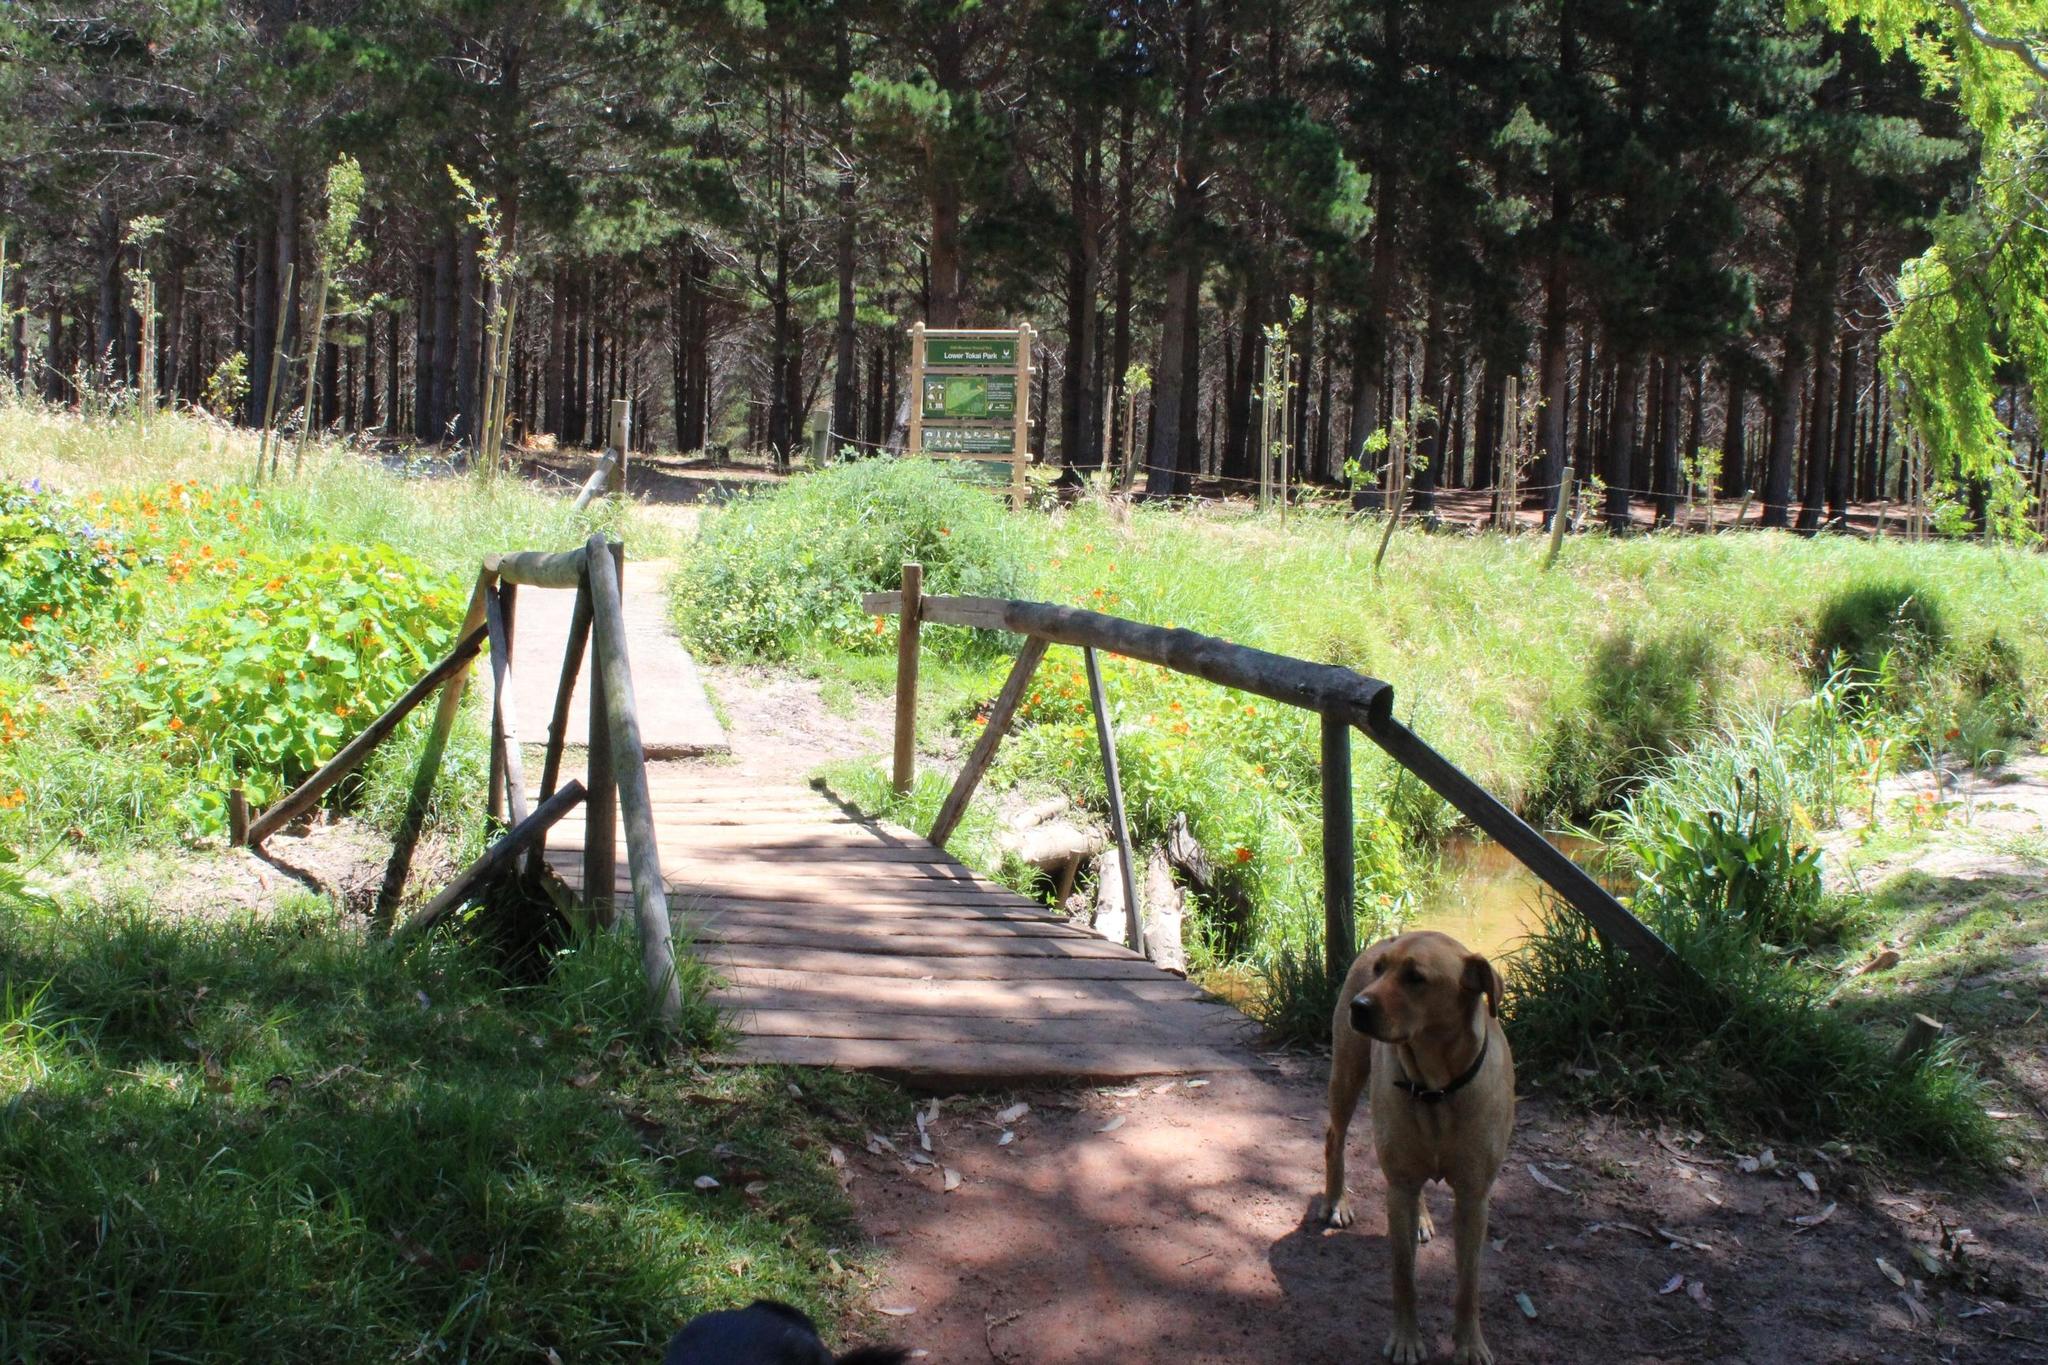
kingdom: Plantae
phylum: Tracheophyta
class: Magnoliopsida
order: Brassicales
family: Tropaeolaceae
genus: Tropaeolum
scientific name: Tropaeolum majus
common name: Nasturtium
